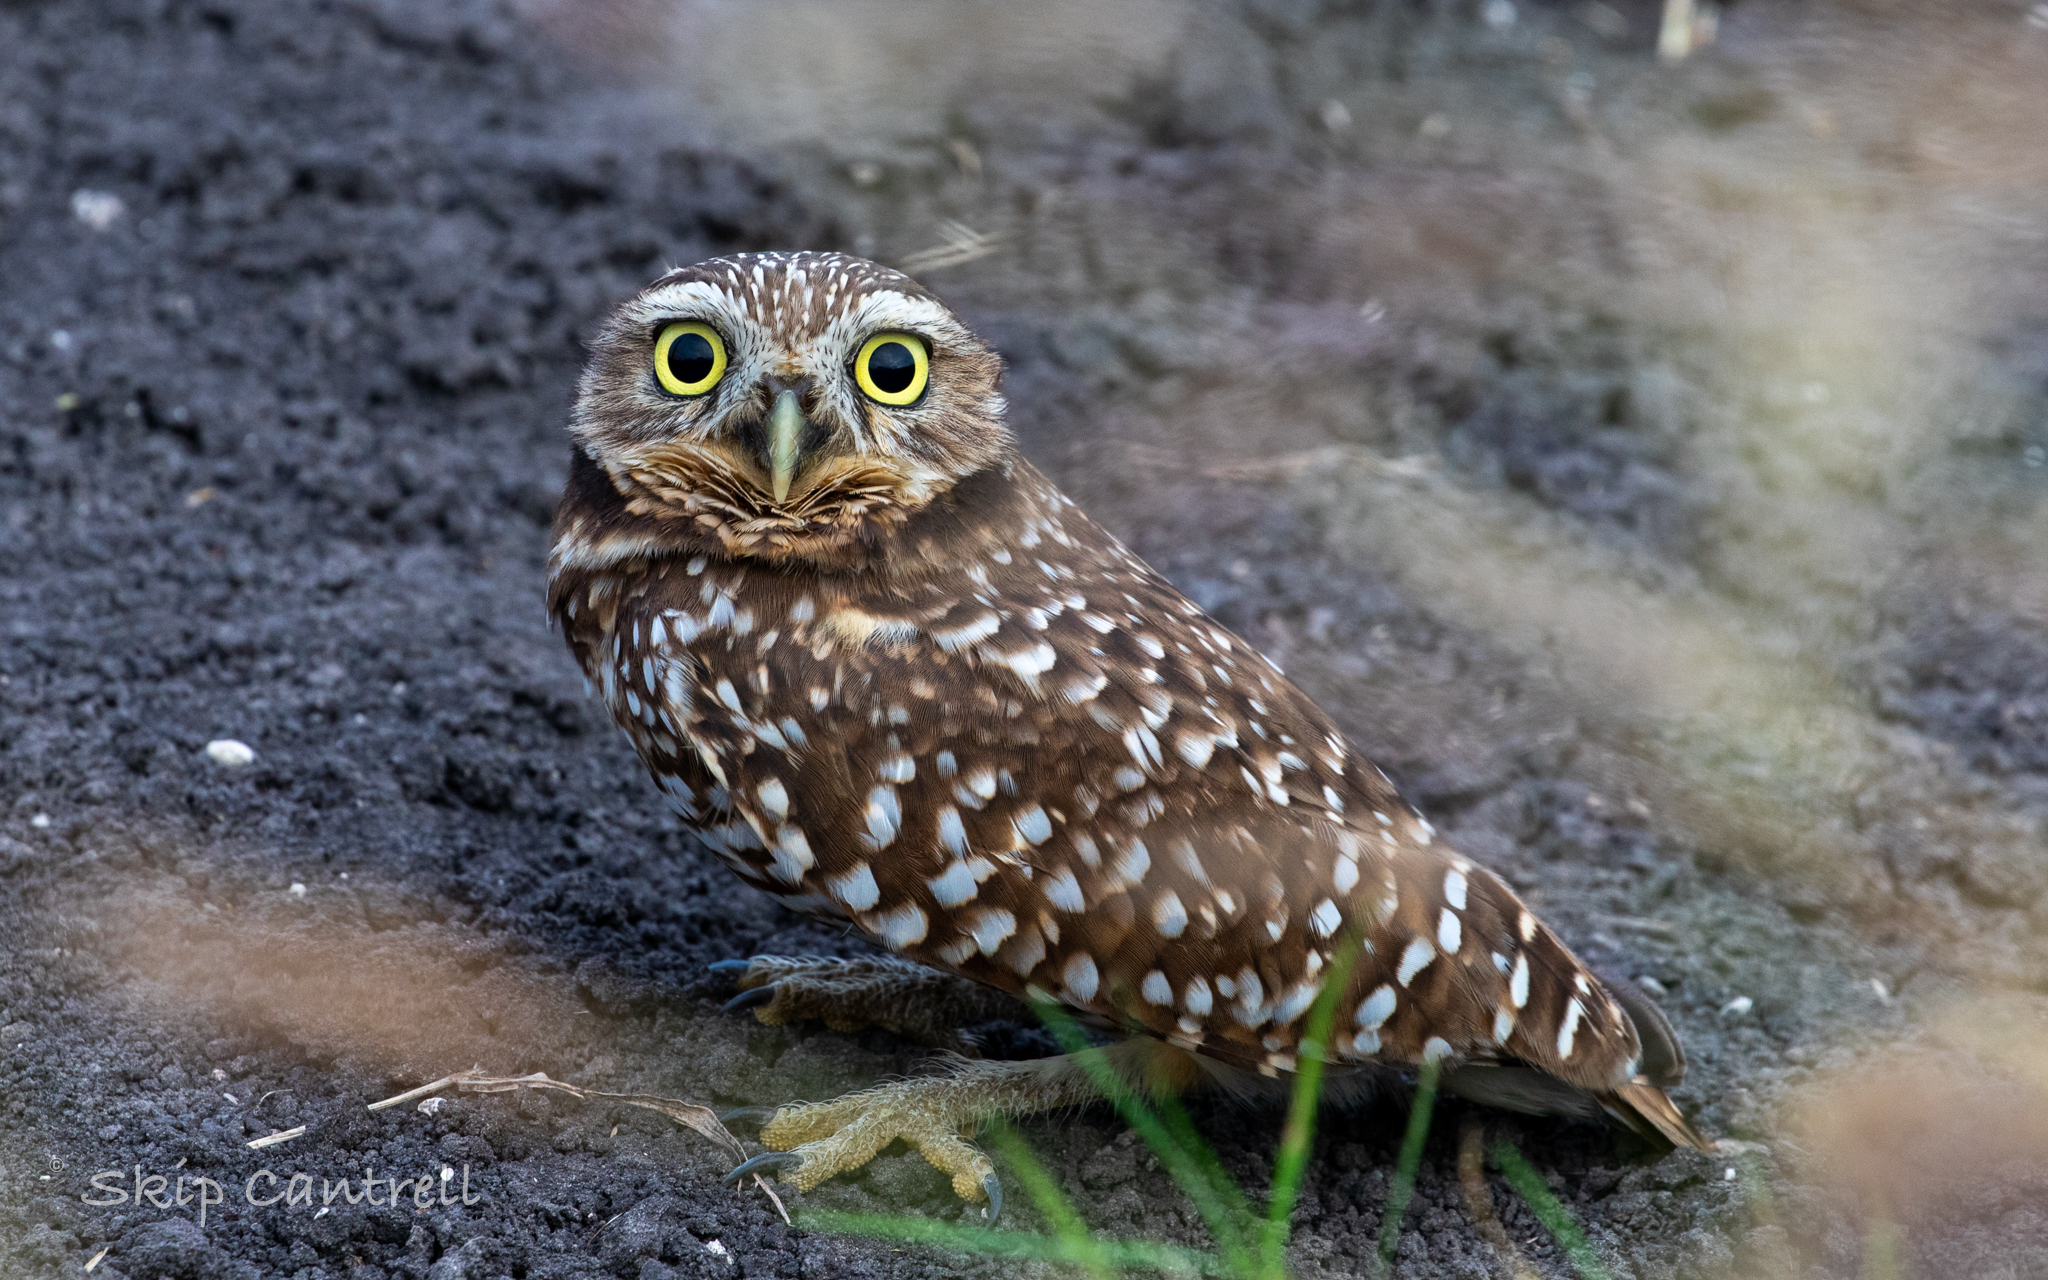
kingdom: Animalia
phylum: Chordata
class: Aves
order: Strigiformes
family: Strigidae
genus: Athene
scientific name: Athene cunicularia
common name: Burrowing owl
